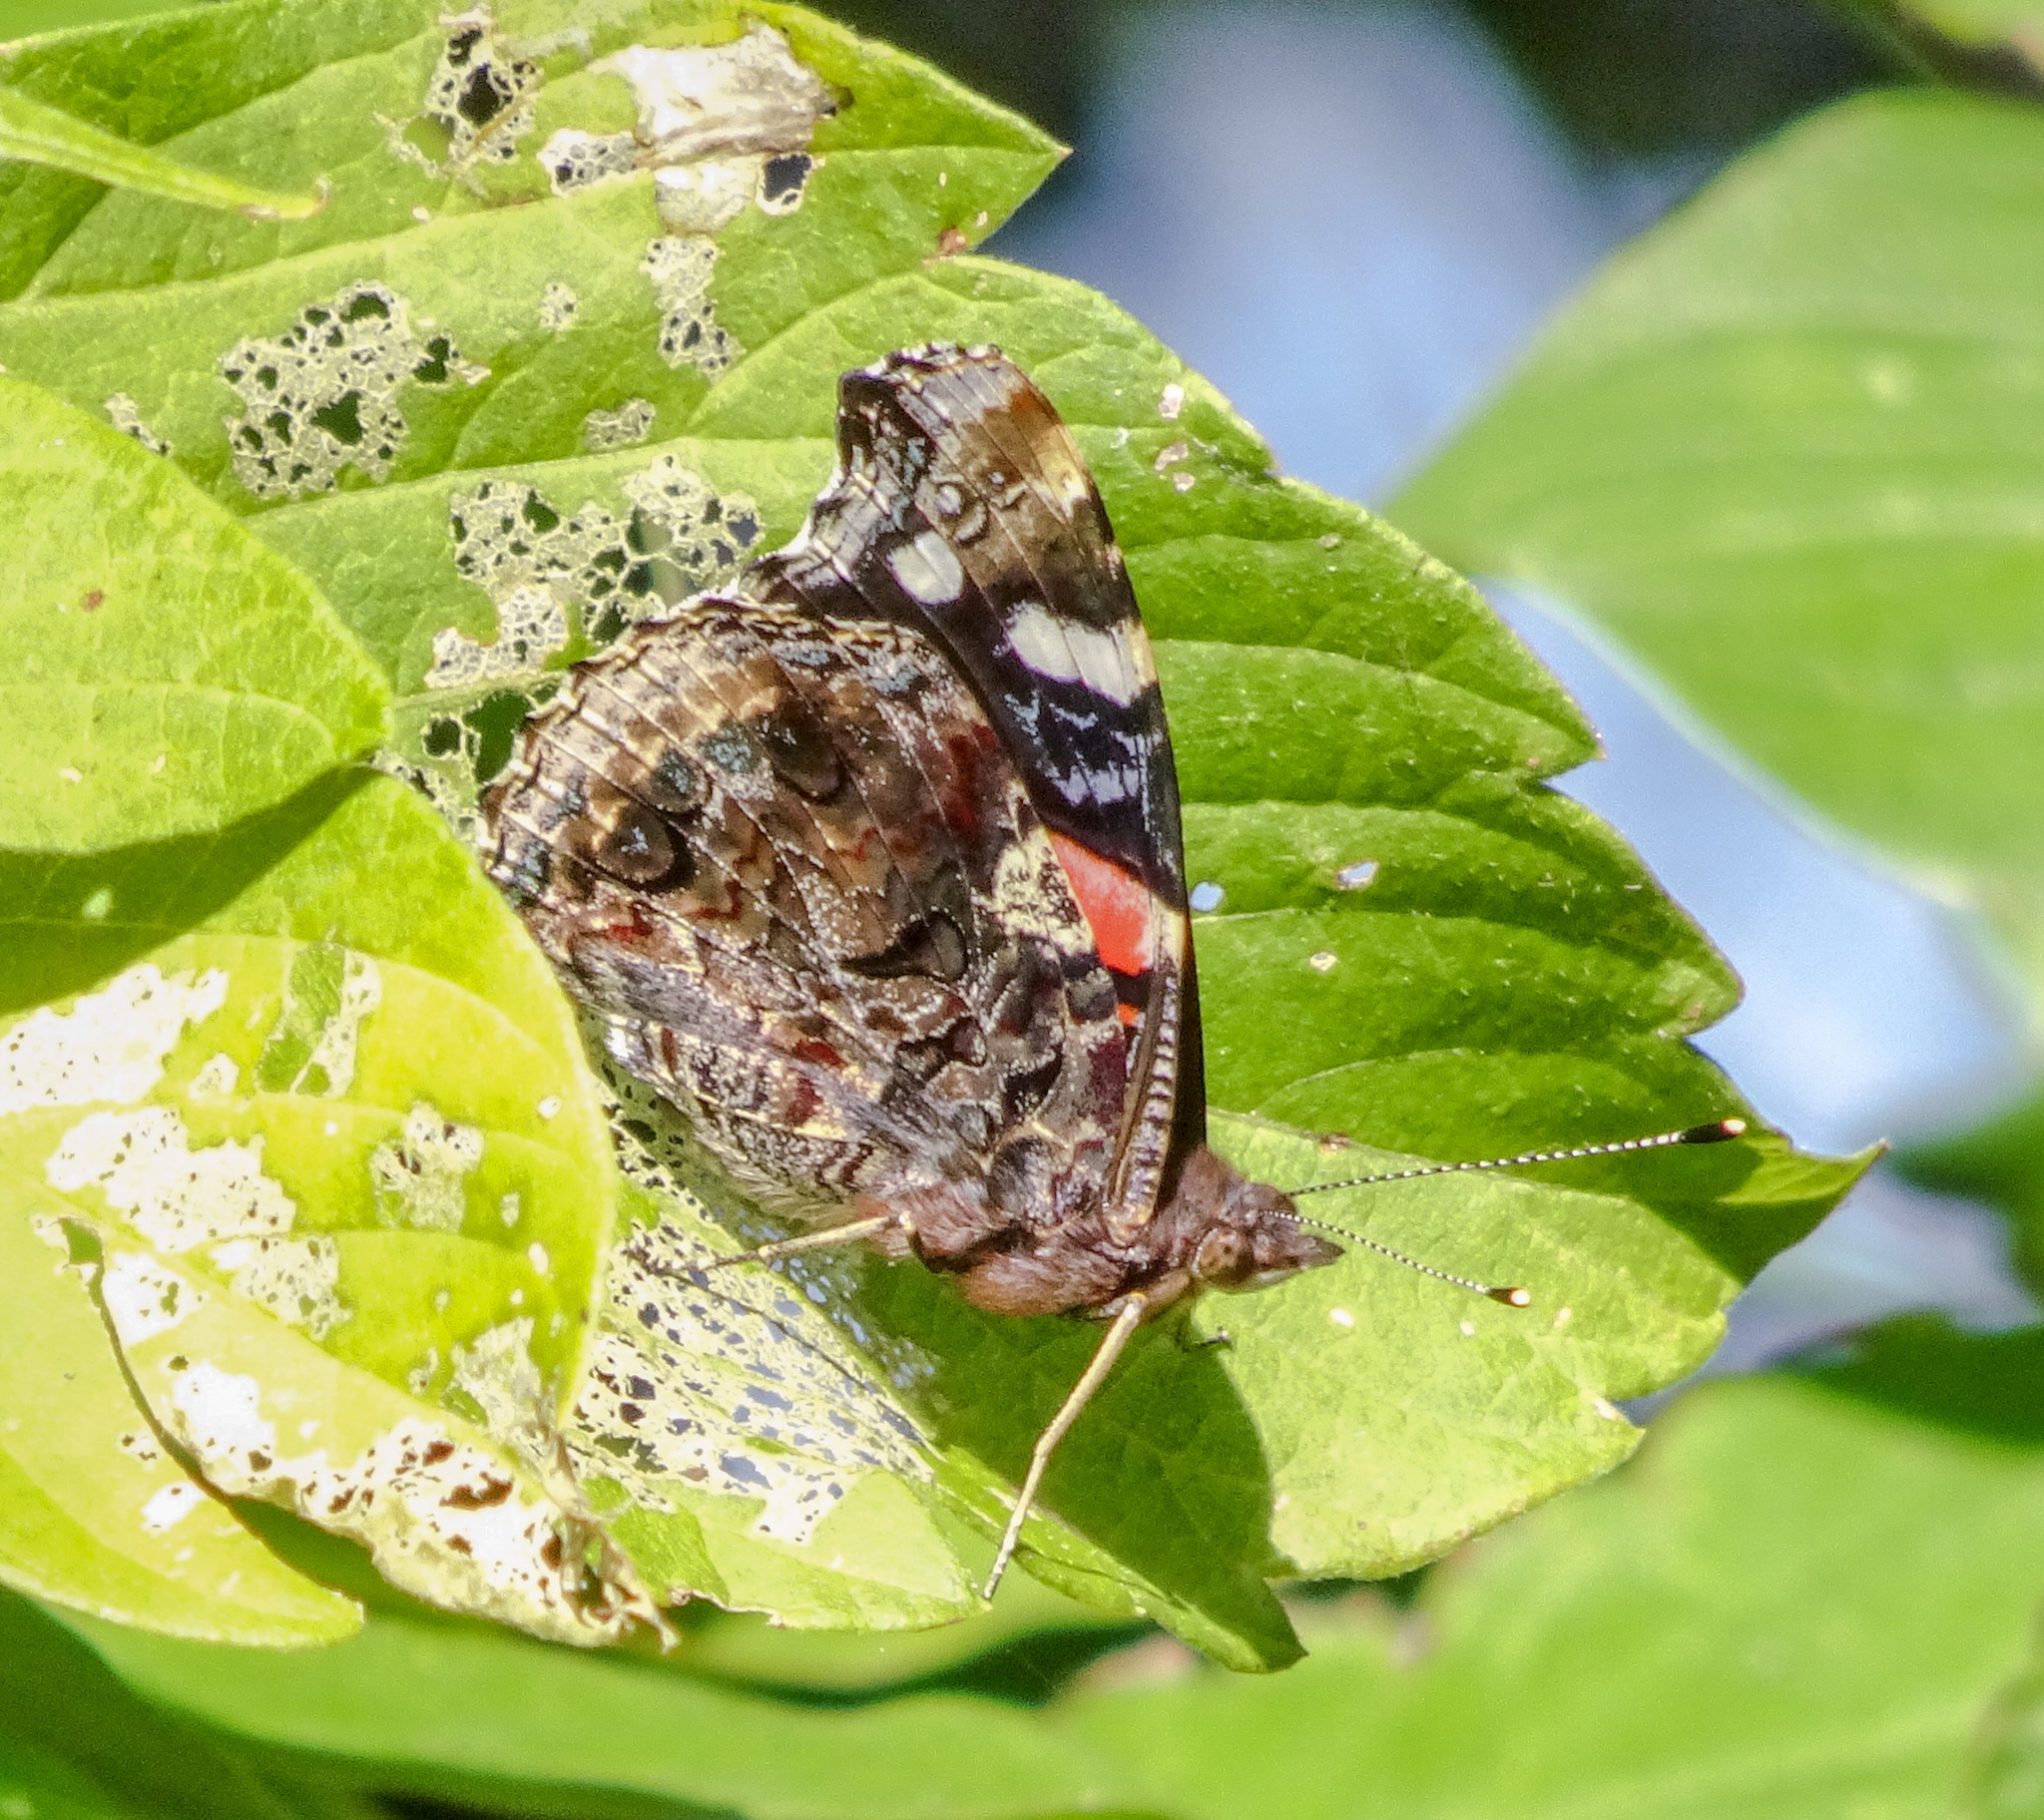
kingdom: Animalia
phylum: Arthropoda
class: Insecta
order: Lepidoptera
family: Nymphalidae
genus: Vanessa
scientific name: Vanessa atalanta
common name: Red admiral
